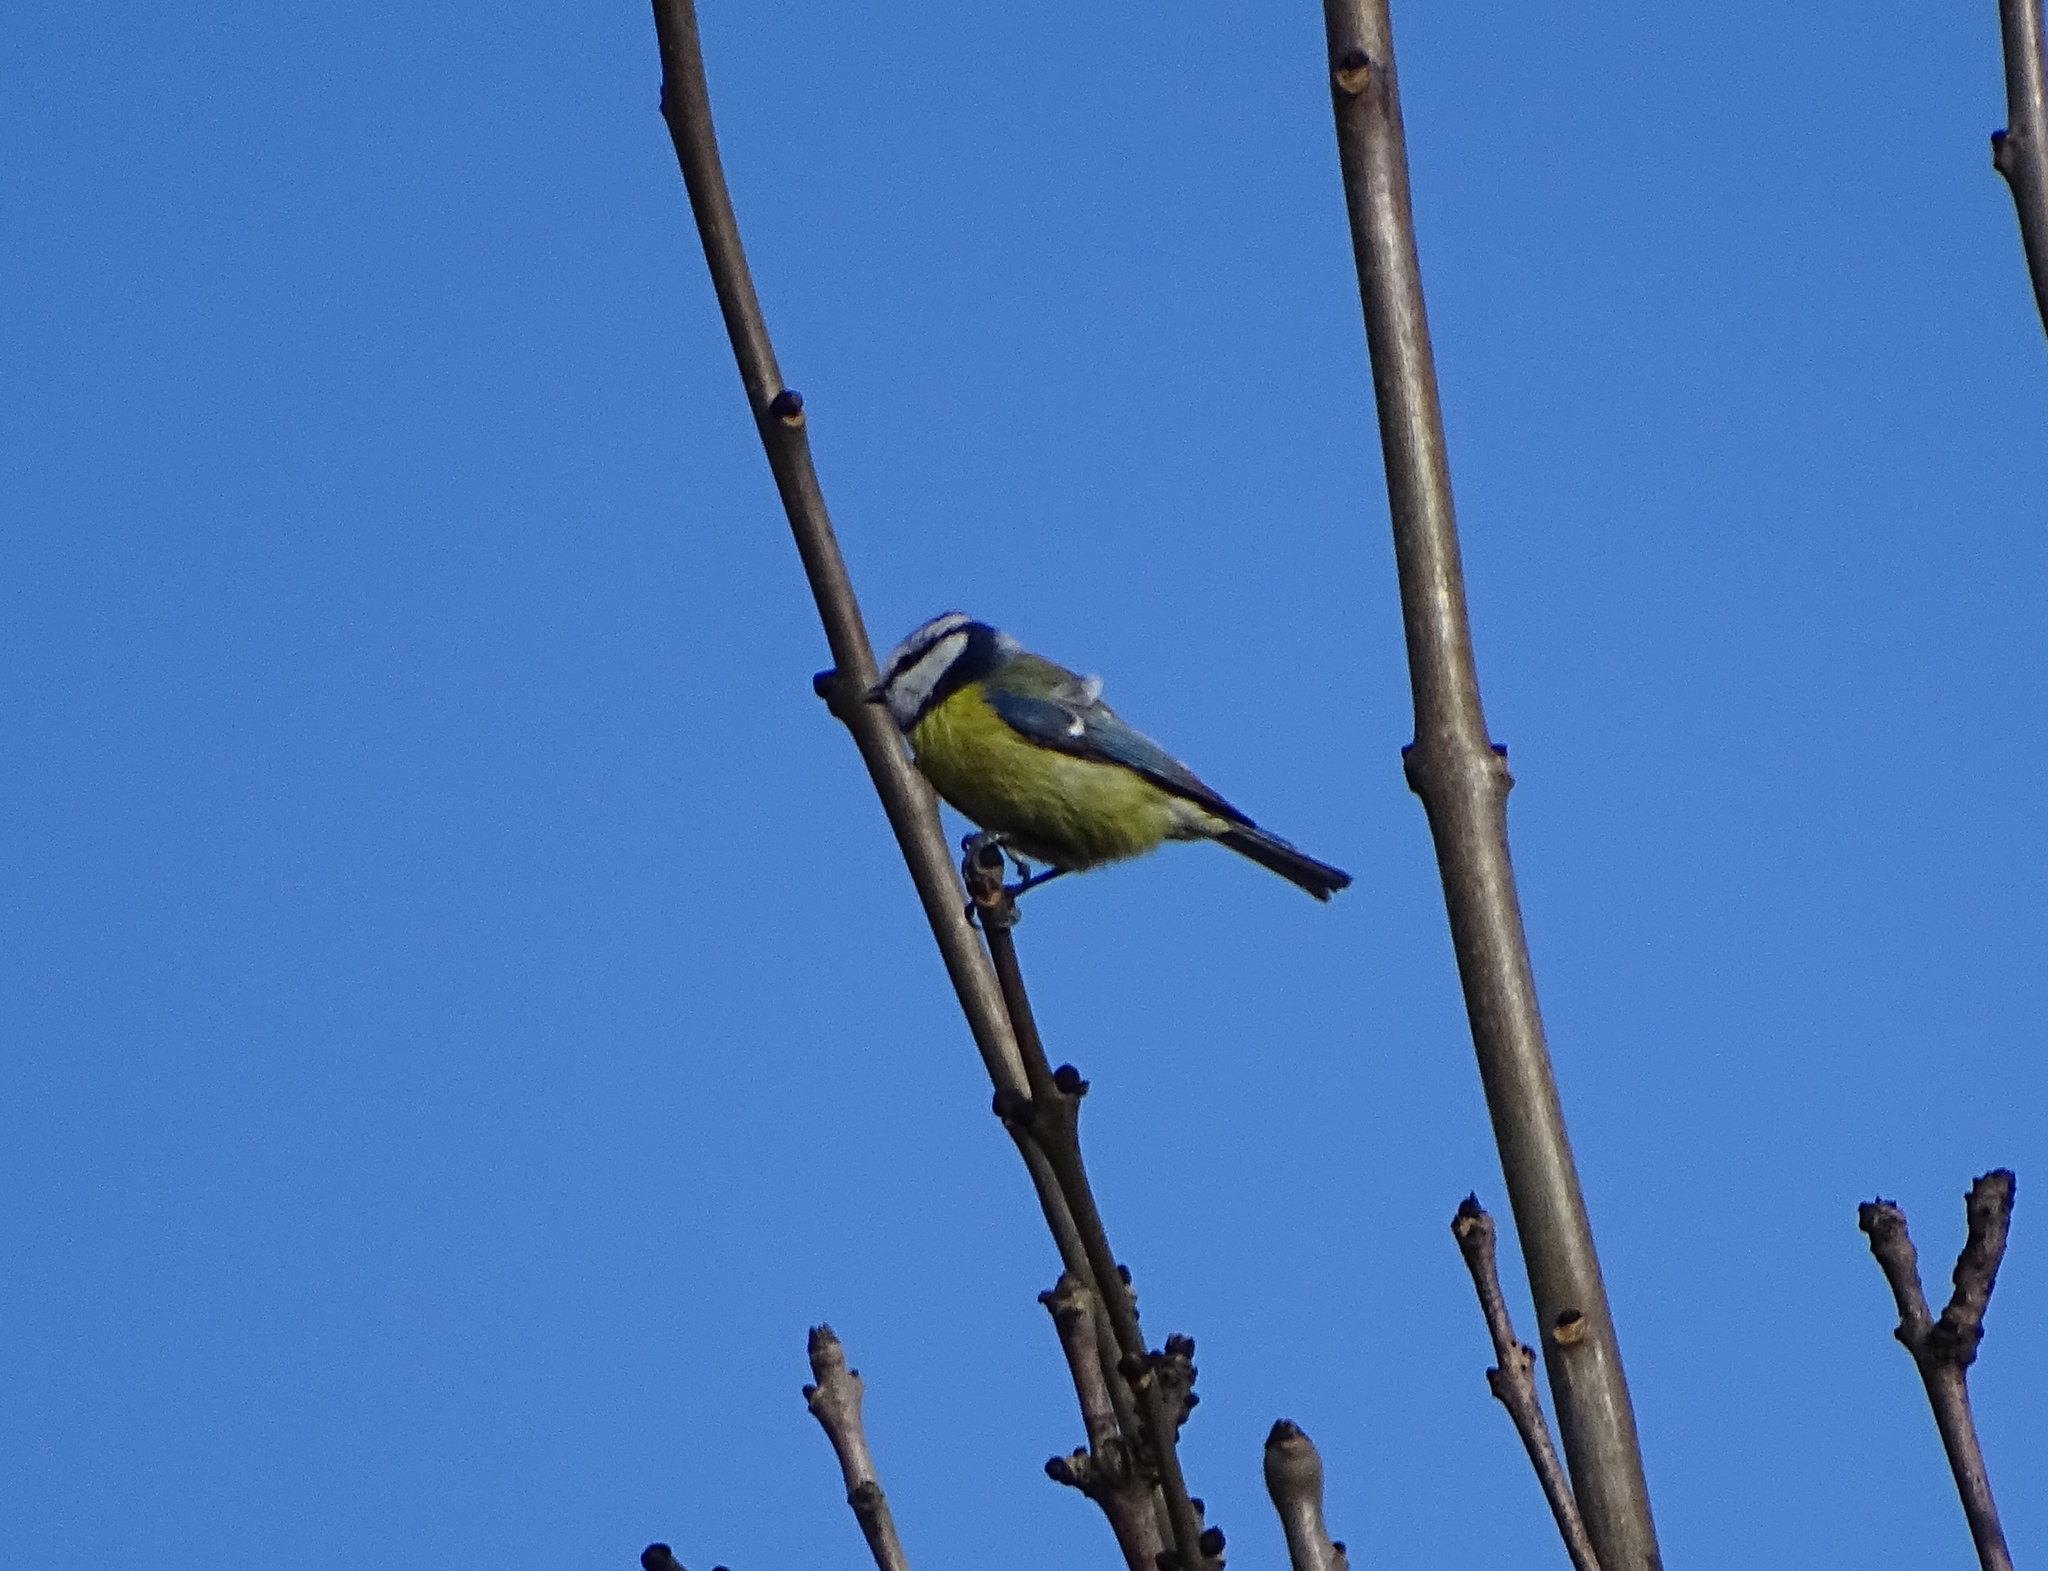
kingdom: Animalia
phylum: Chordata
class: Aves
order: Passeriformes
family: Paridae
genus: Cyanistes
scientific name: Cyanistes caeruleus
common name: Eurasian blue tit
